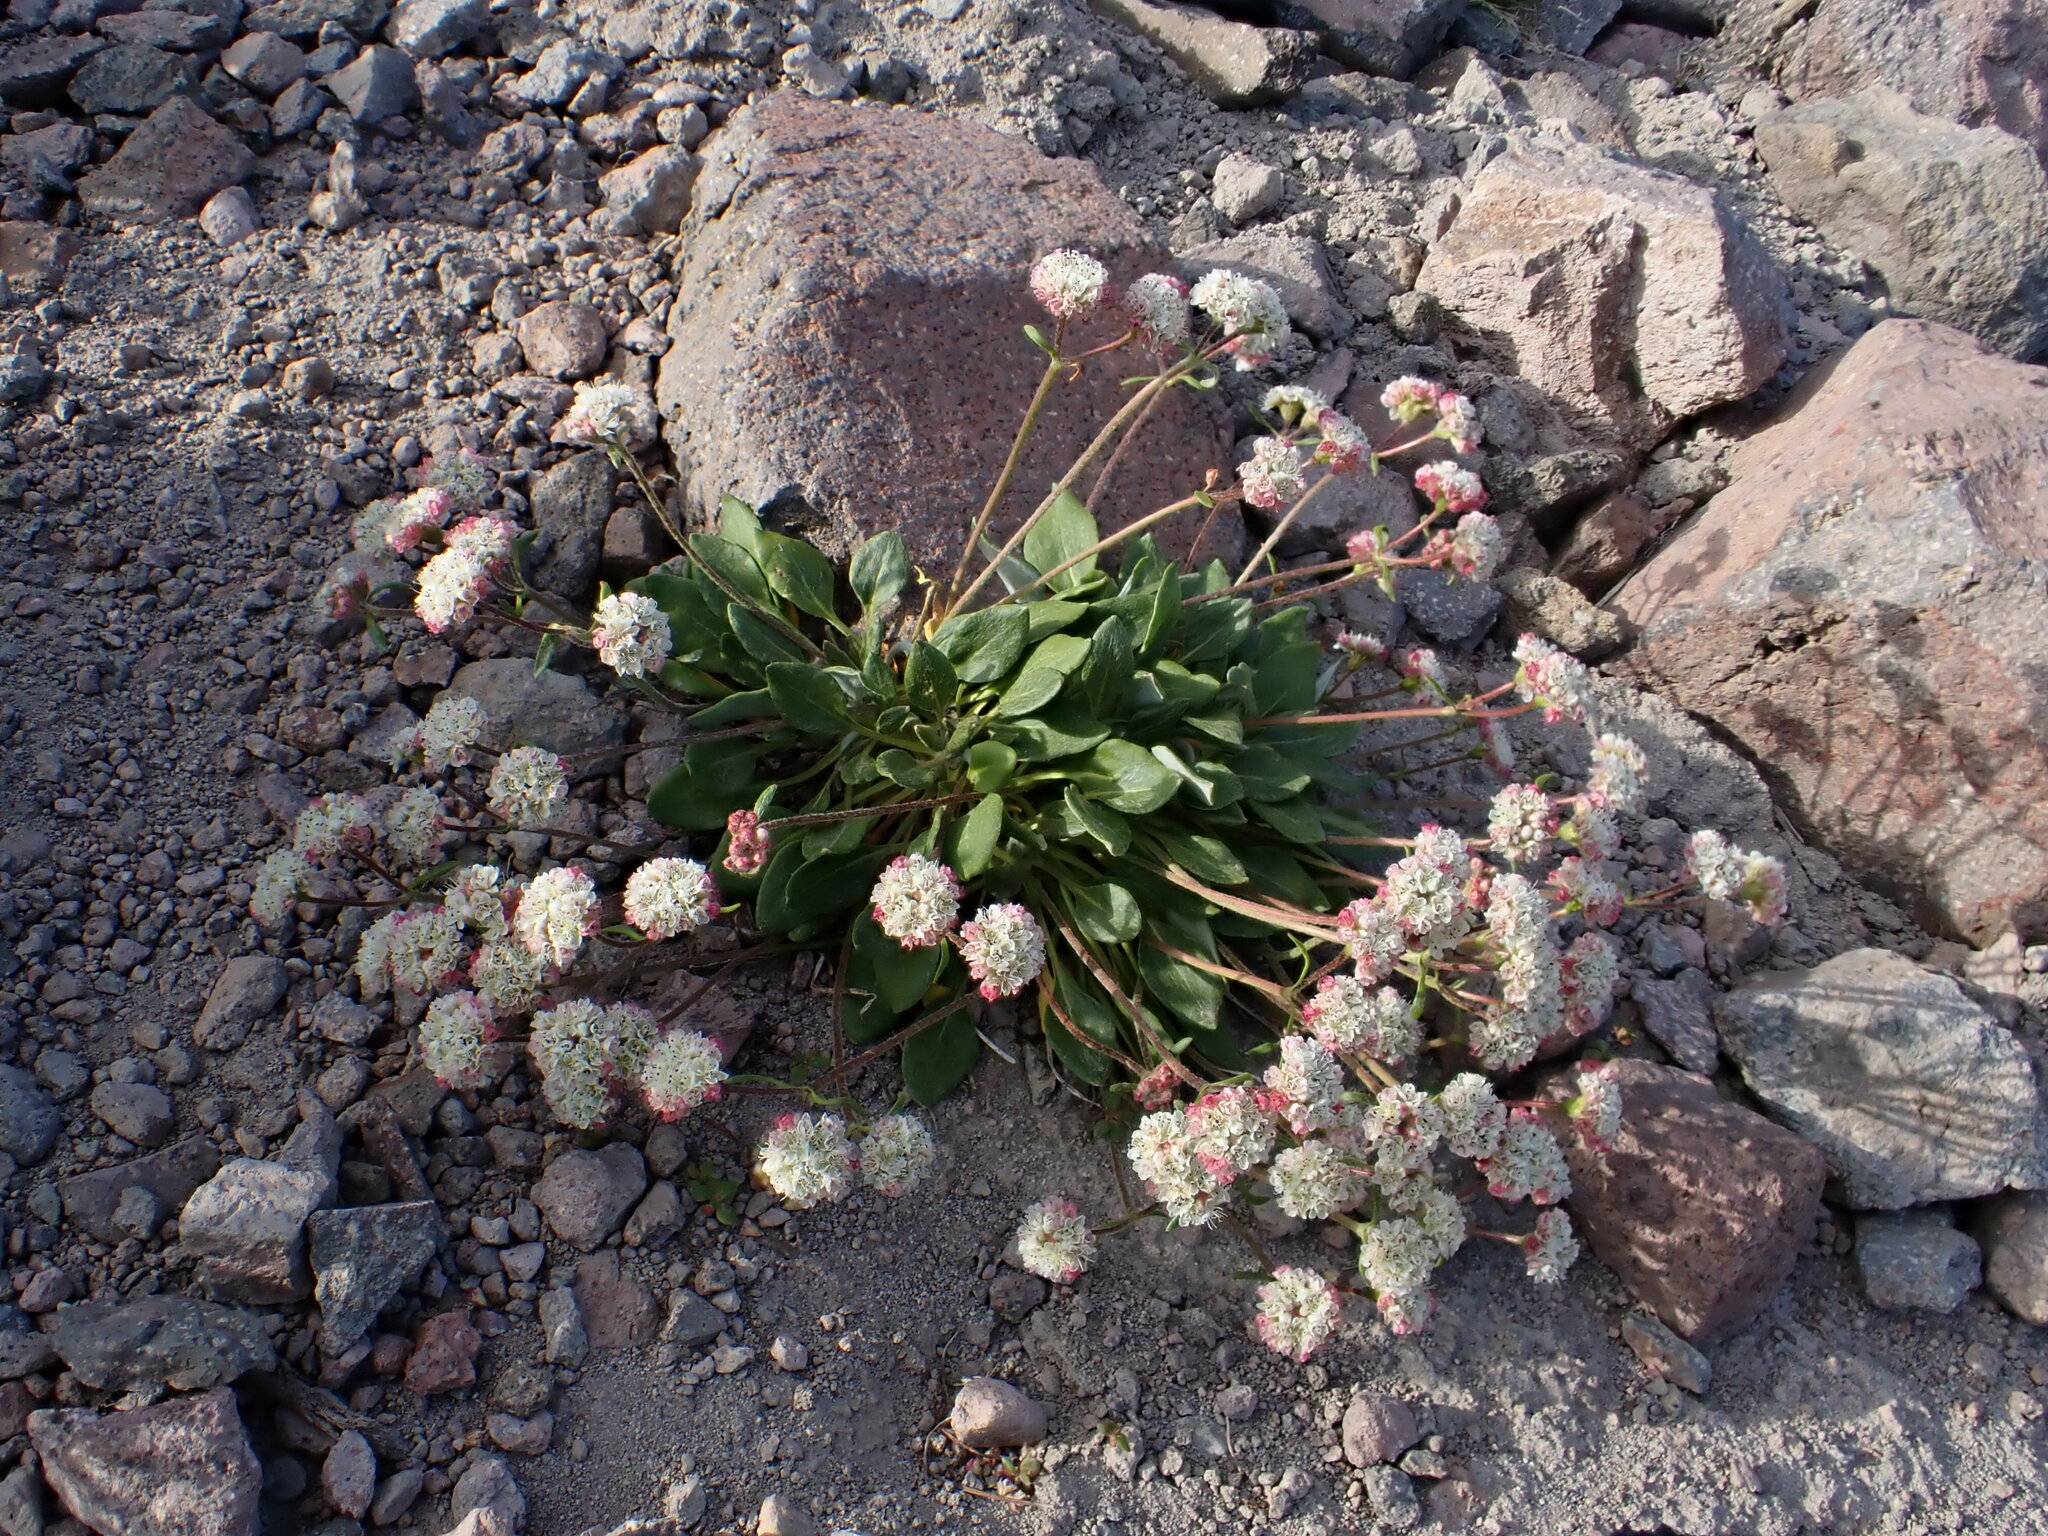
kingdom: Plantae
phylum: Tracheophyta
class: Magnoliopsida
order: Caryophyllales
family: Polygonaceae
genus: Eriogonum
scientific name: Eriogonum pyrolifolium
